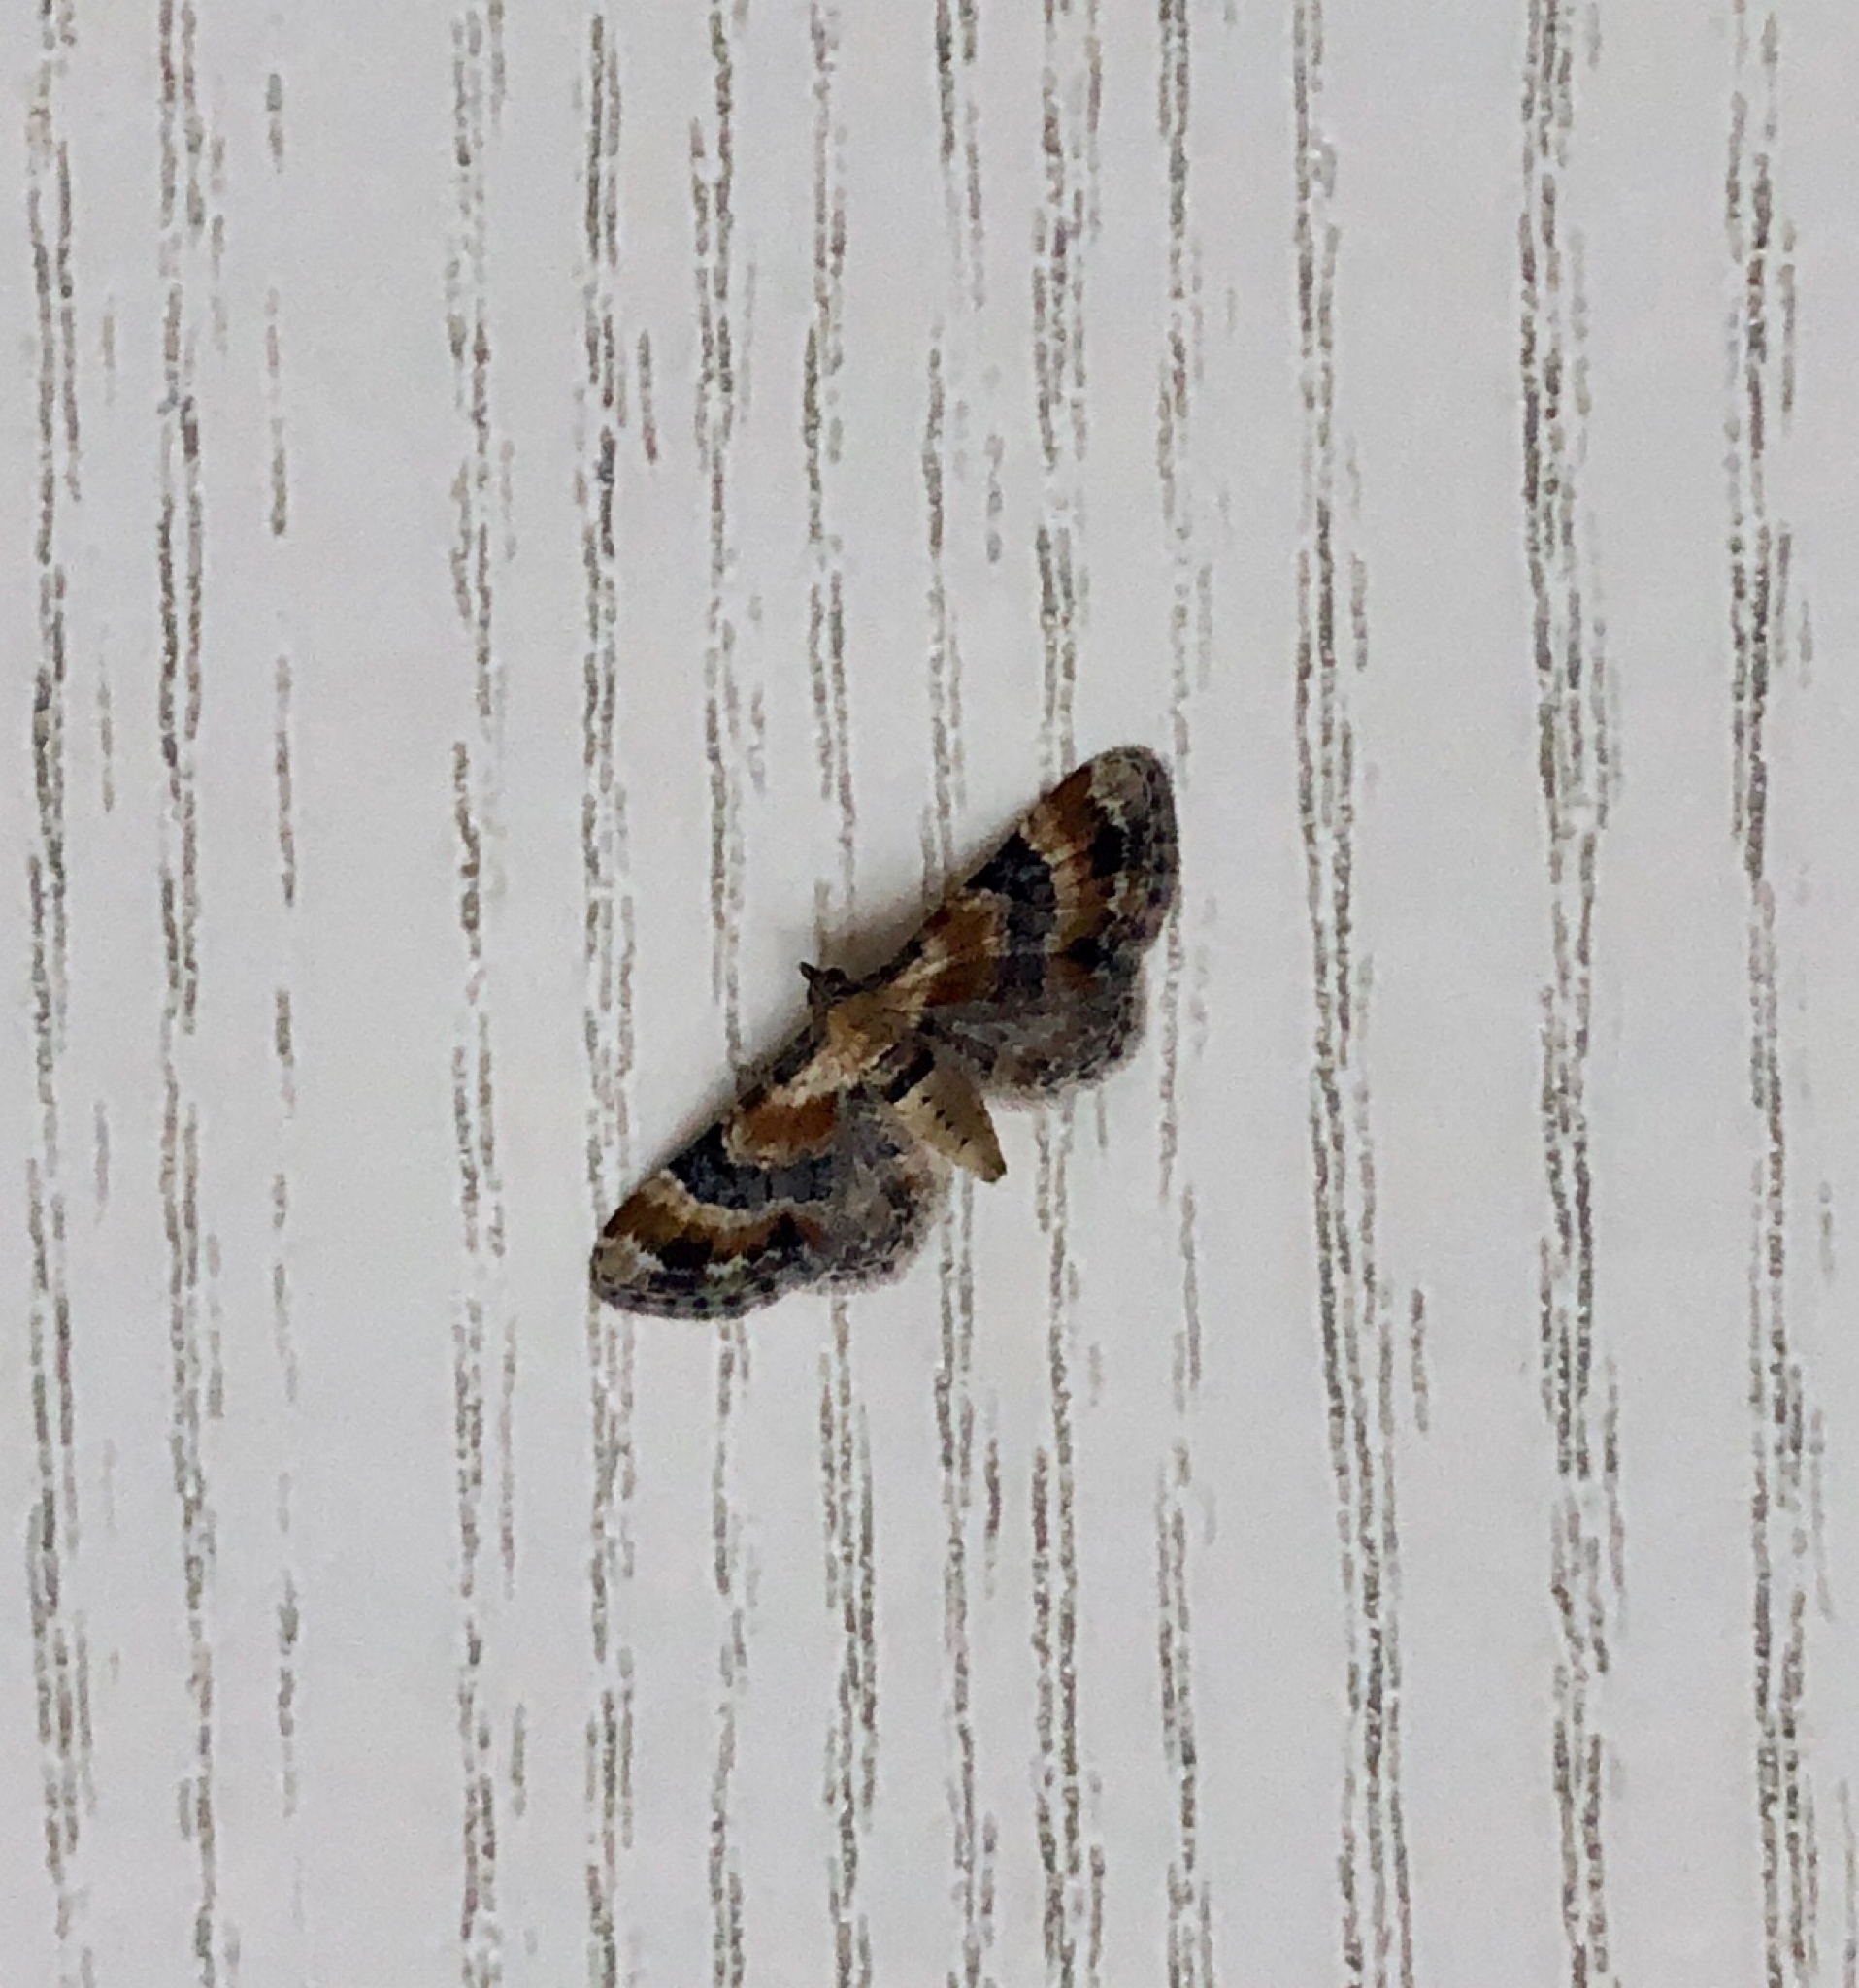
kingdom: Animalia
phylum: Arthropoda
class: Insecta
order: Lepidoptera
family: Geometridae
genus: Eupithecia
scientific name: Eupithecia linariata
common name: Toadflax pug
